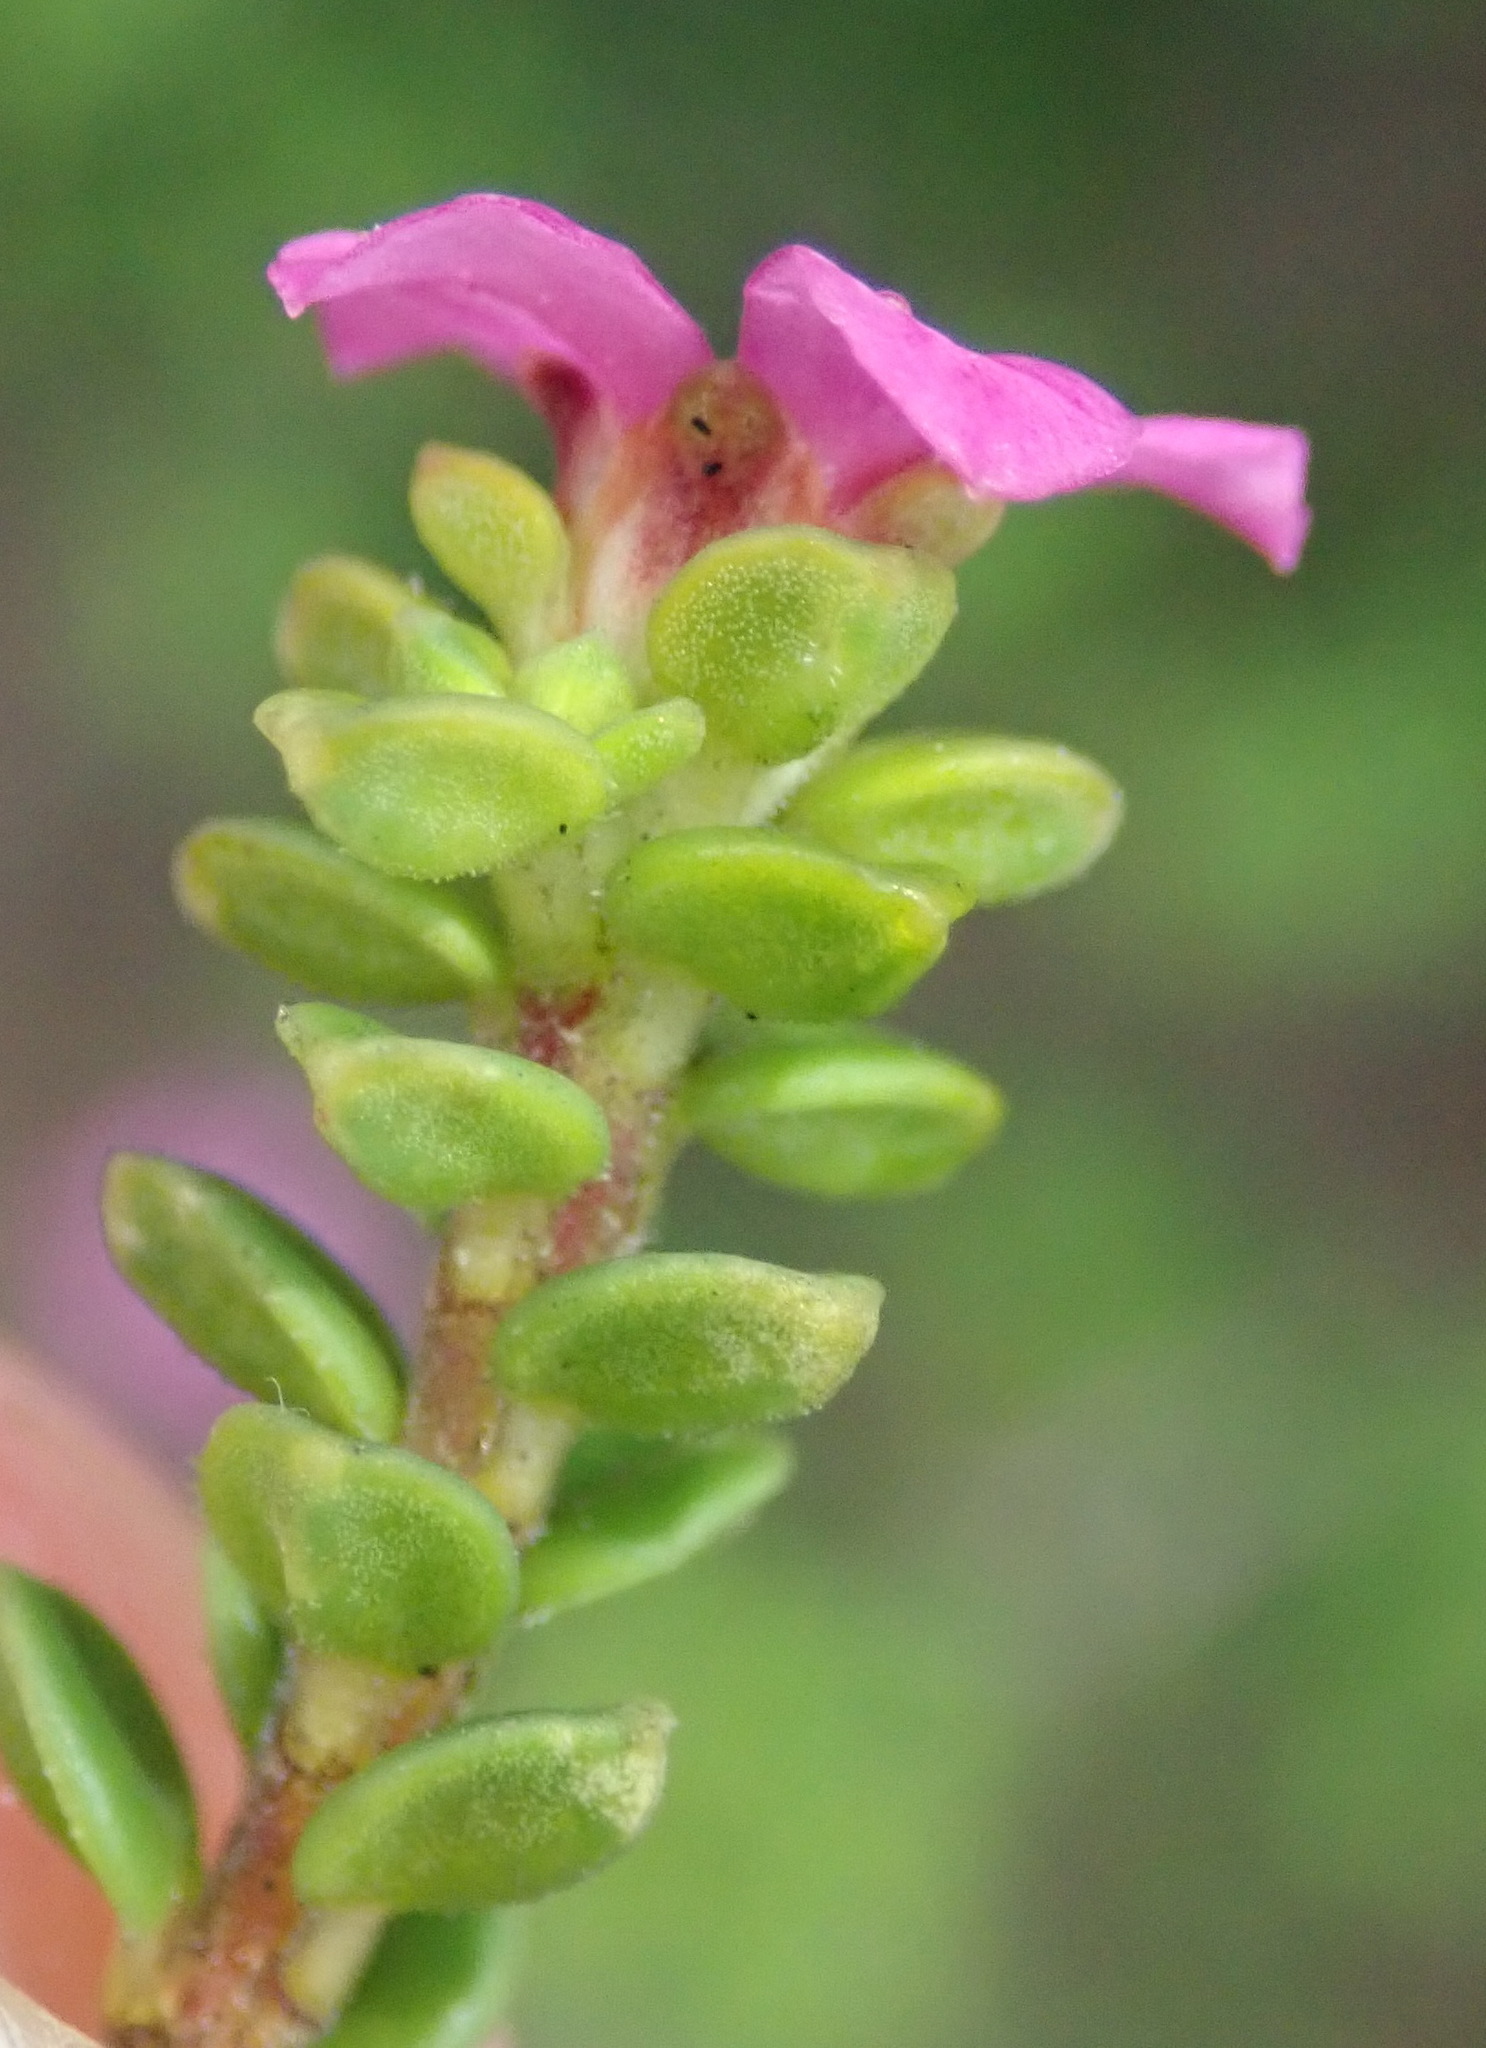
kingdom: Plantae
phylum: Tracheophyta
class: Magnoliopsida
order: Sapindales
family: Rutaceae
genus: Acmadenia
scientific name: Acmadenia heterophylla
